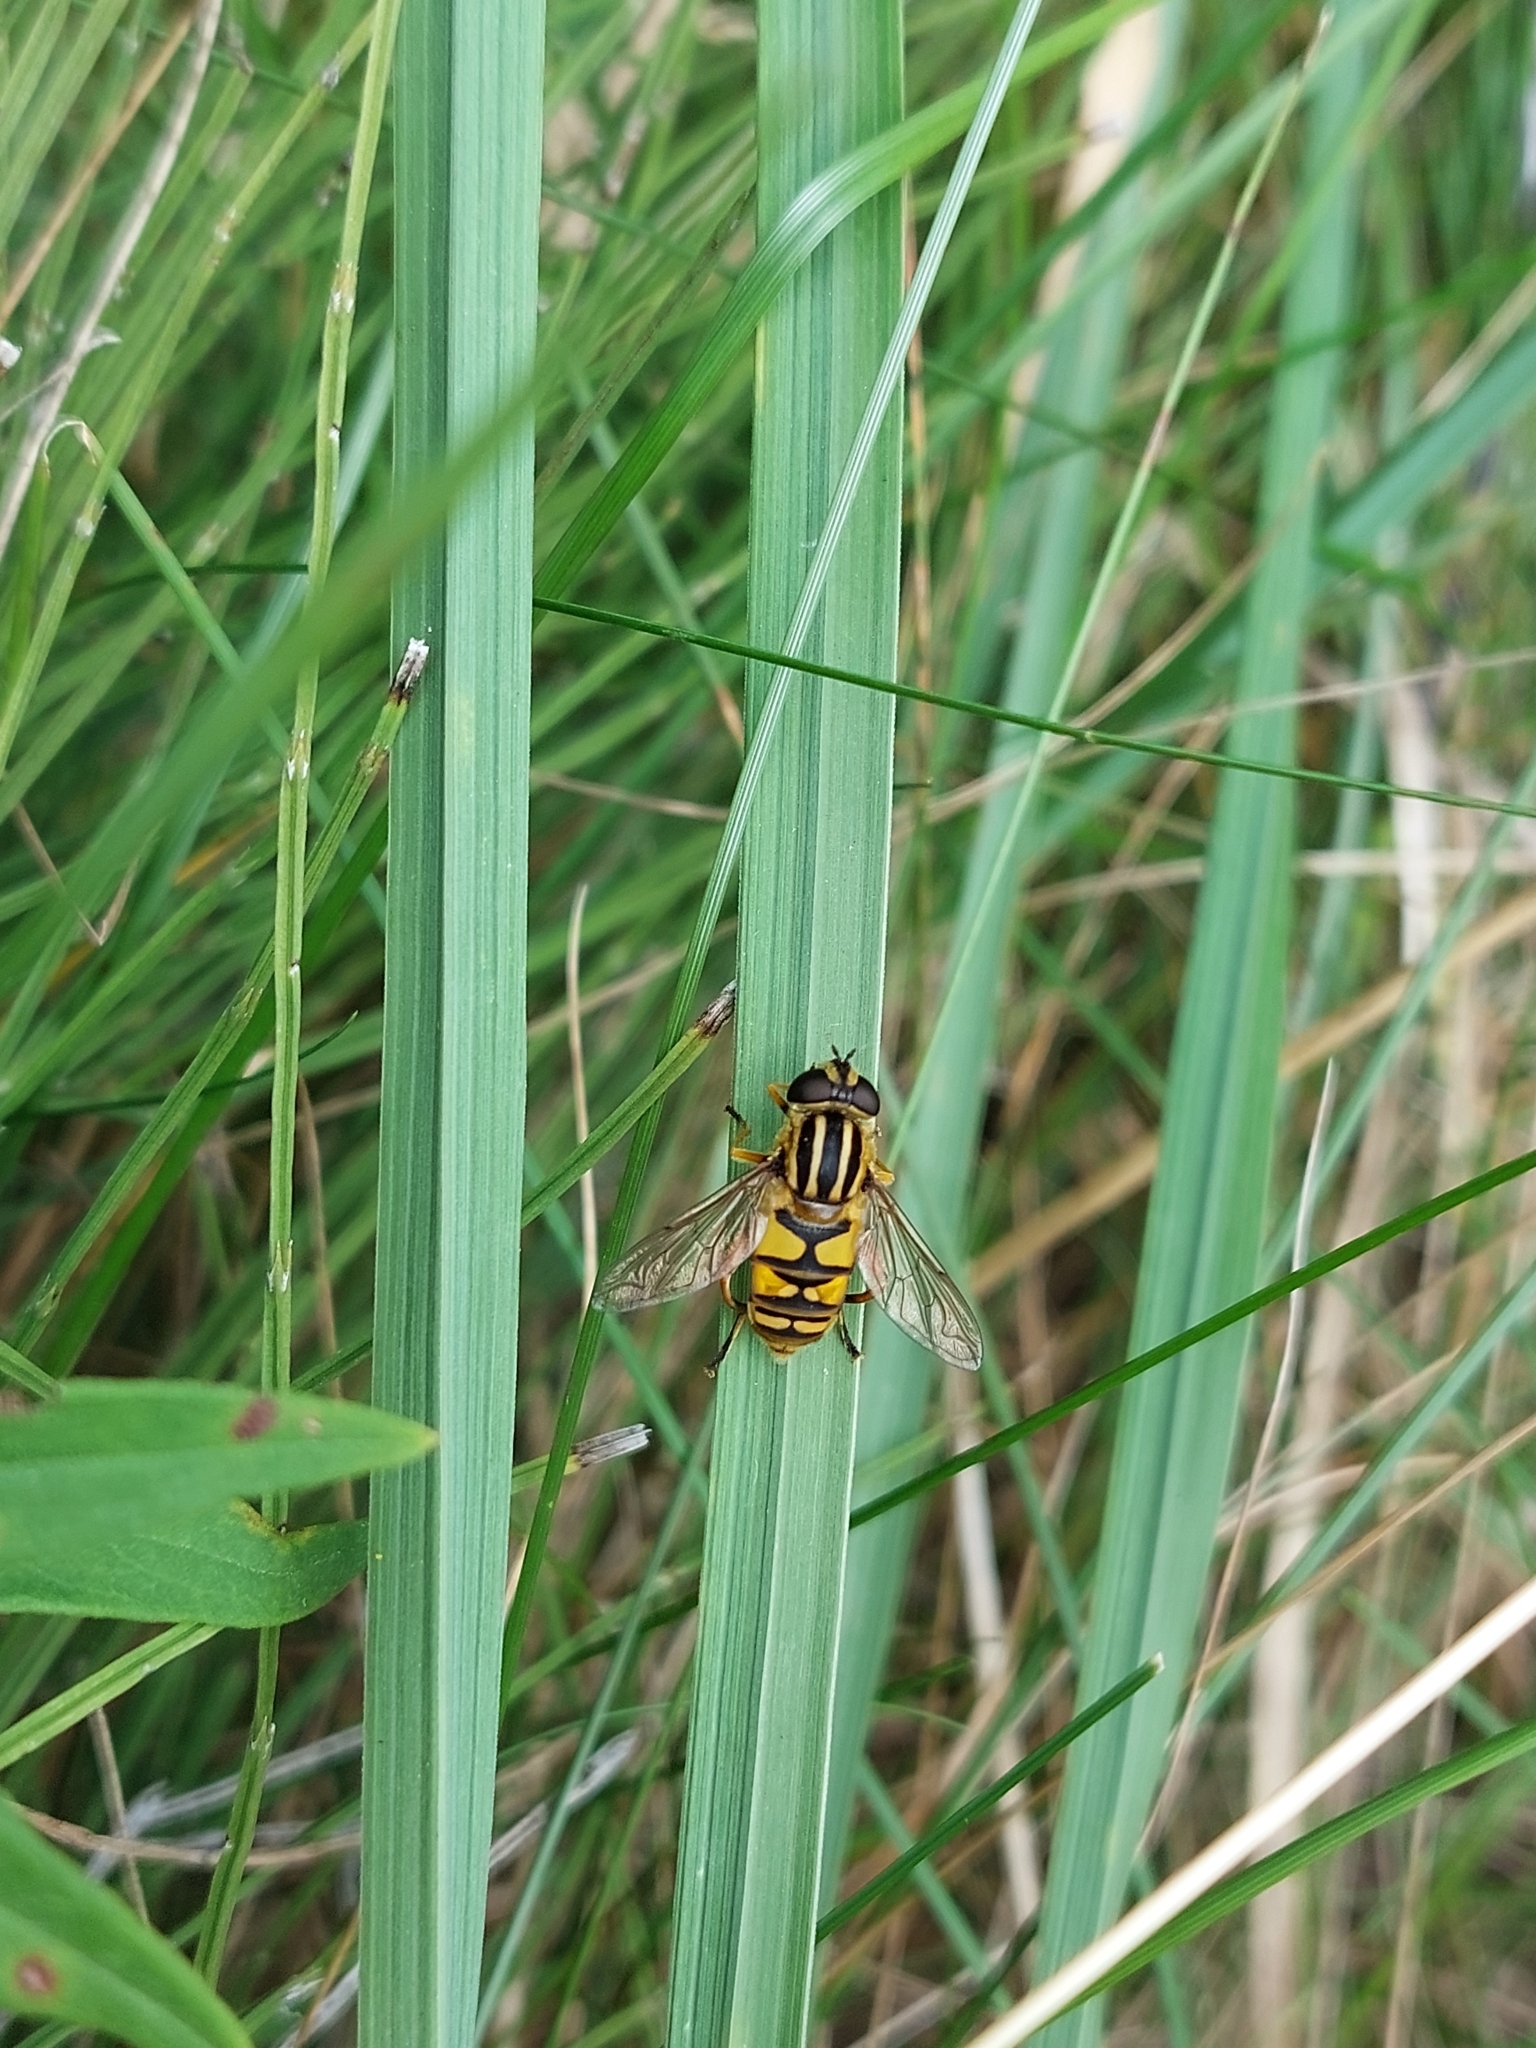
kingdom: Animalia
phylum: Arthropoda
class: Insecta
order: Diptera
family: Syrphidae
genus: Helophilus
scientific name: Helophilus pendulus
